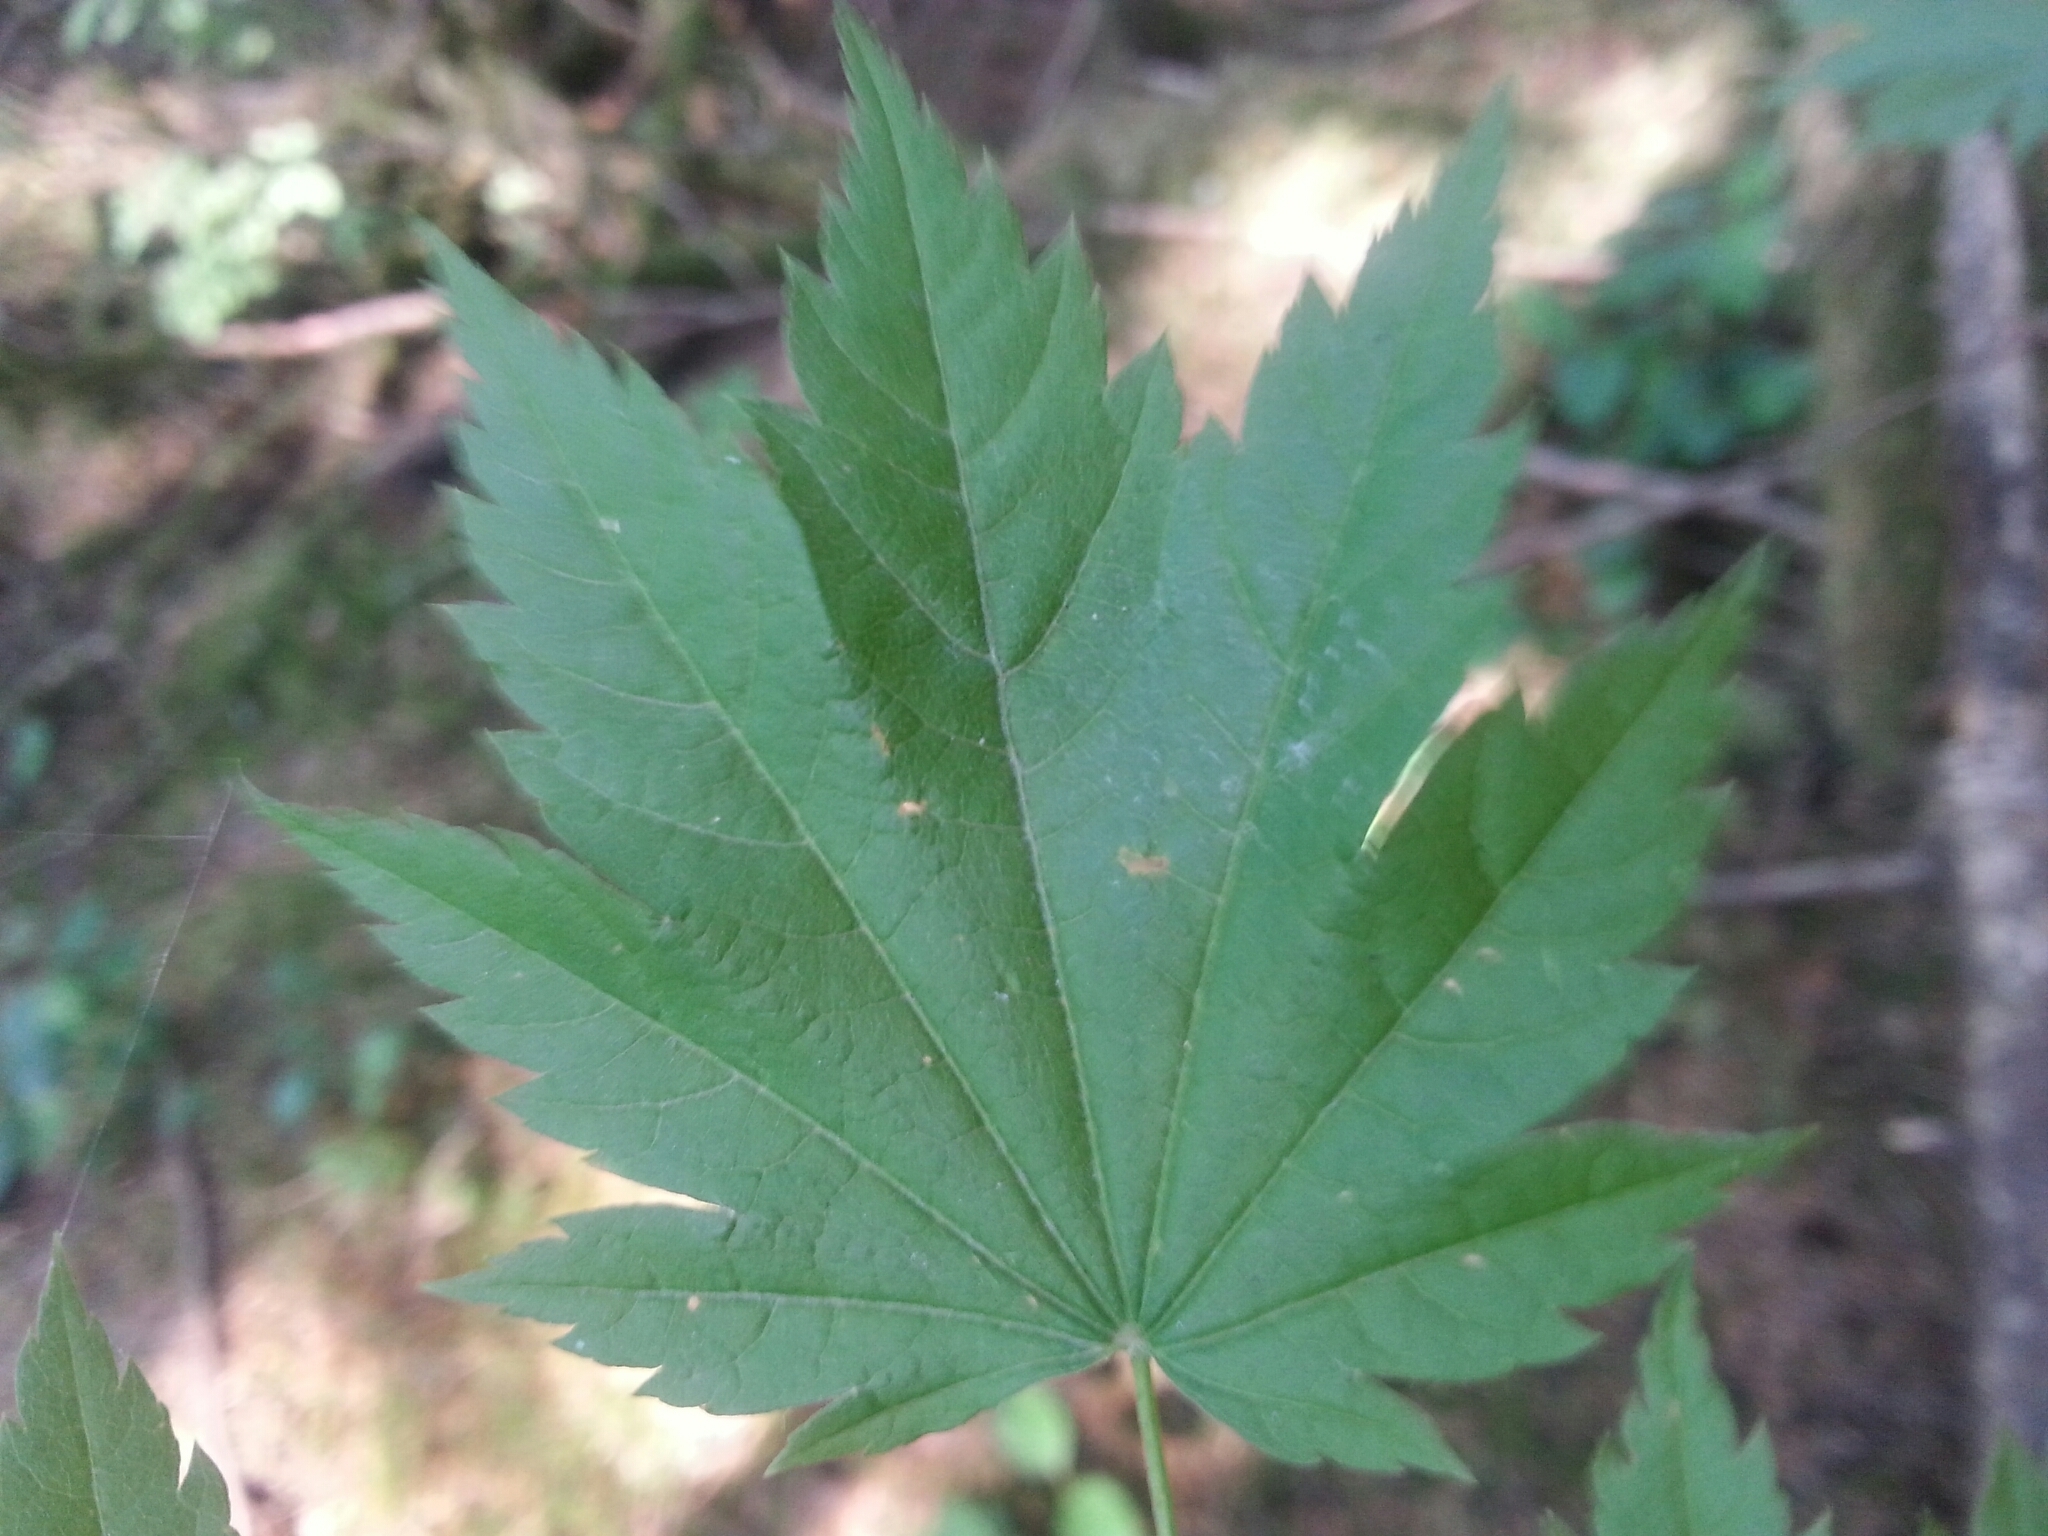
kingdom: Plantae
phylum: Tracheophyta
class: Magnoliopsida
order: Sapindales
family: Sapindaceae
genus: Acer
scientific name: Acer circinatum
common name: Vine maple
